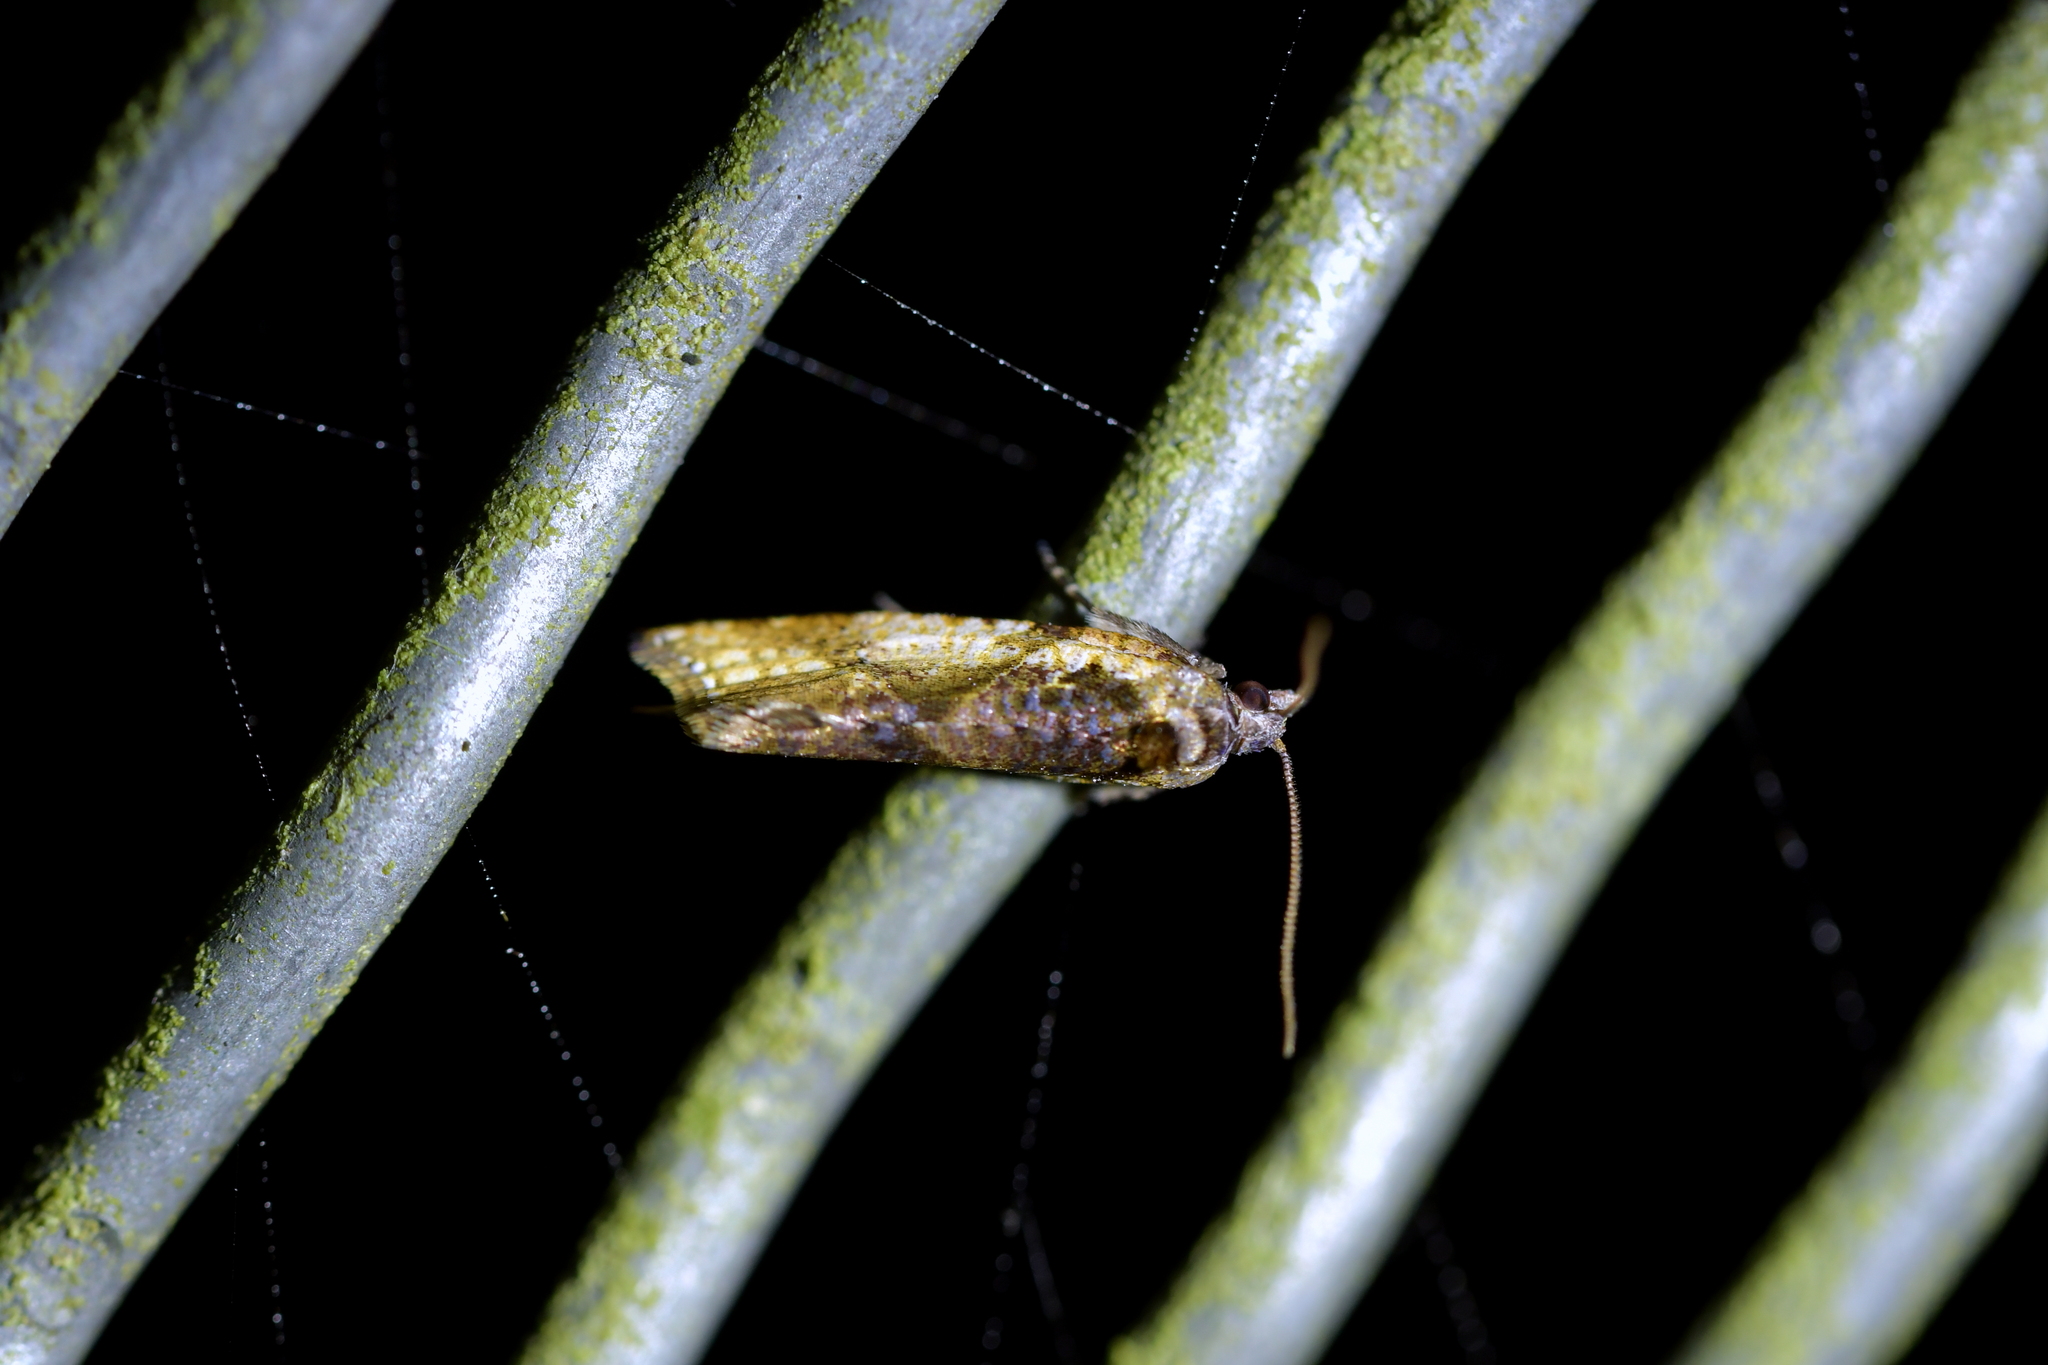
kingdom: Animalia
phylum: Arthropoda
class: Insecta
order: Lepidoptera
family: Tortricidae
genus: Pyrgotis
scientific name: Pyrgotis plagiatana
